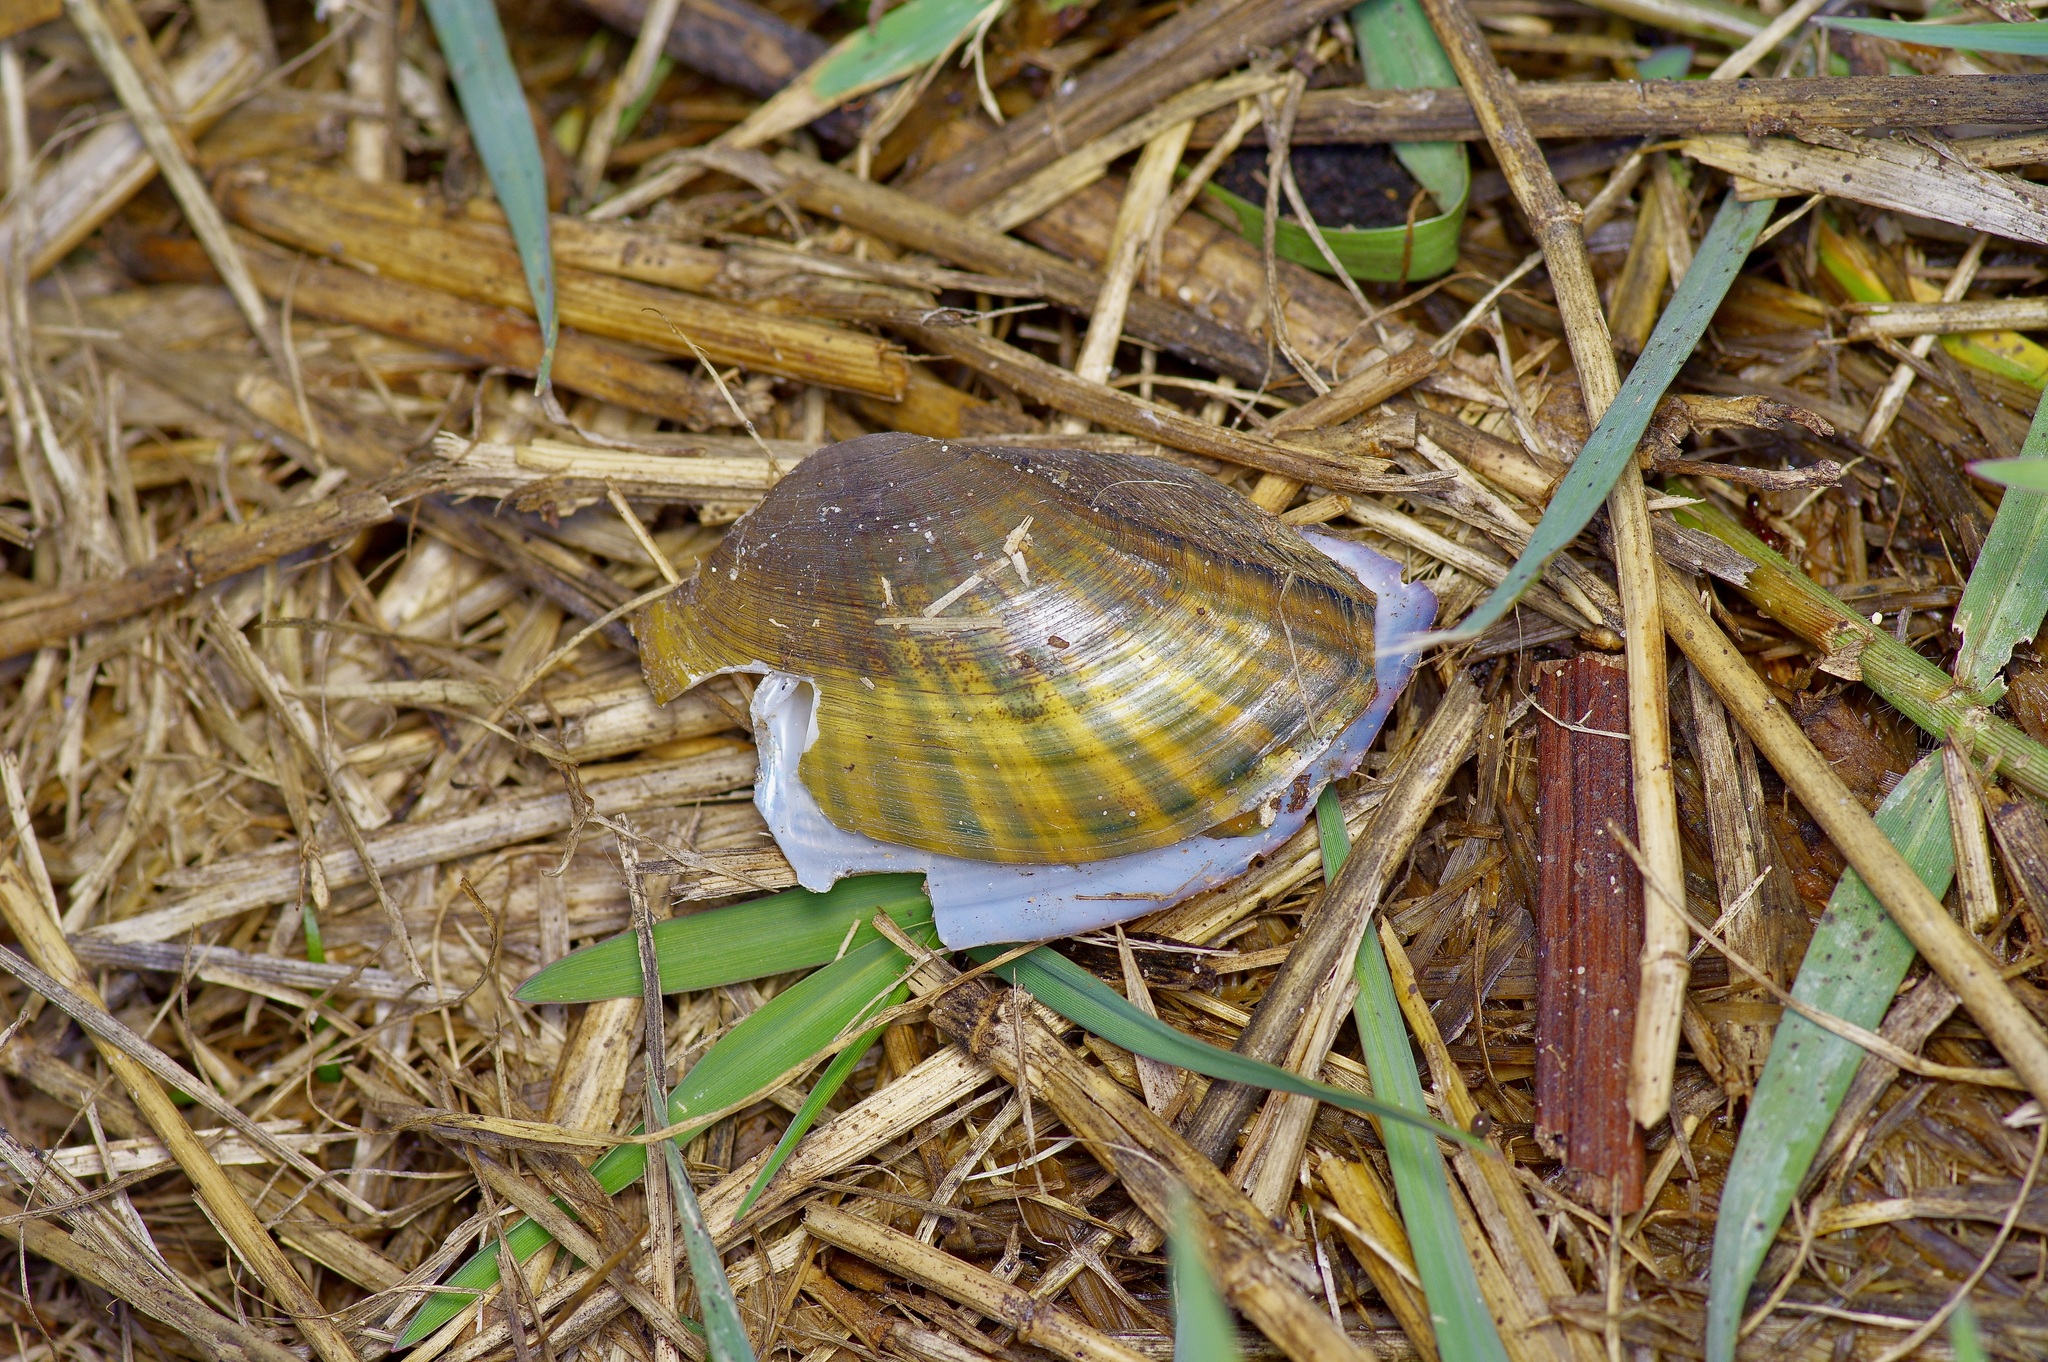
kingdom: Animalia
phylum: Mollusca
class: Bivalvia
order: Unionida
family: Unionidae
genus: Sagittunio
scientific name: Sagittunio subrostratus
